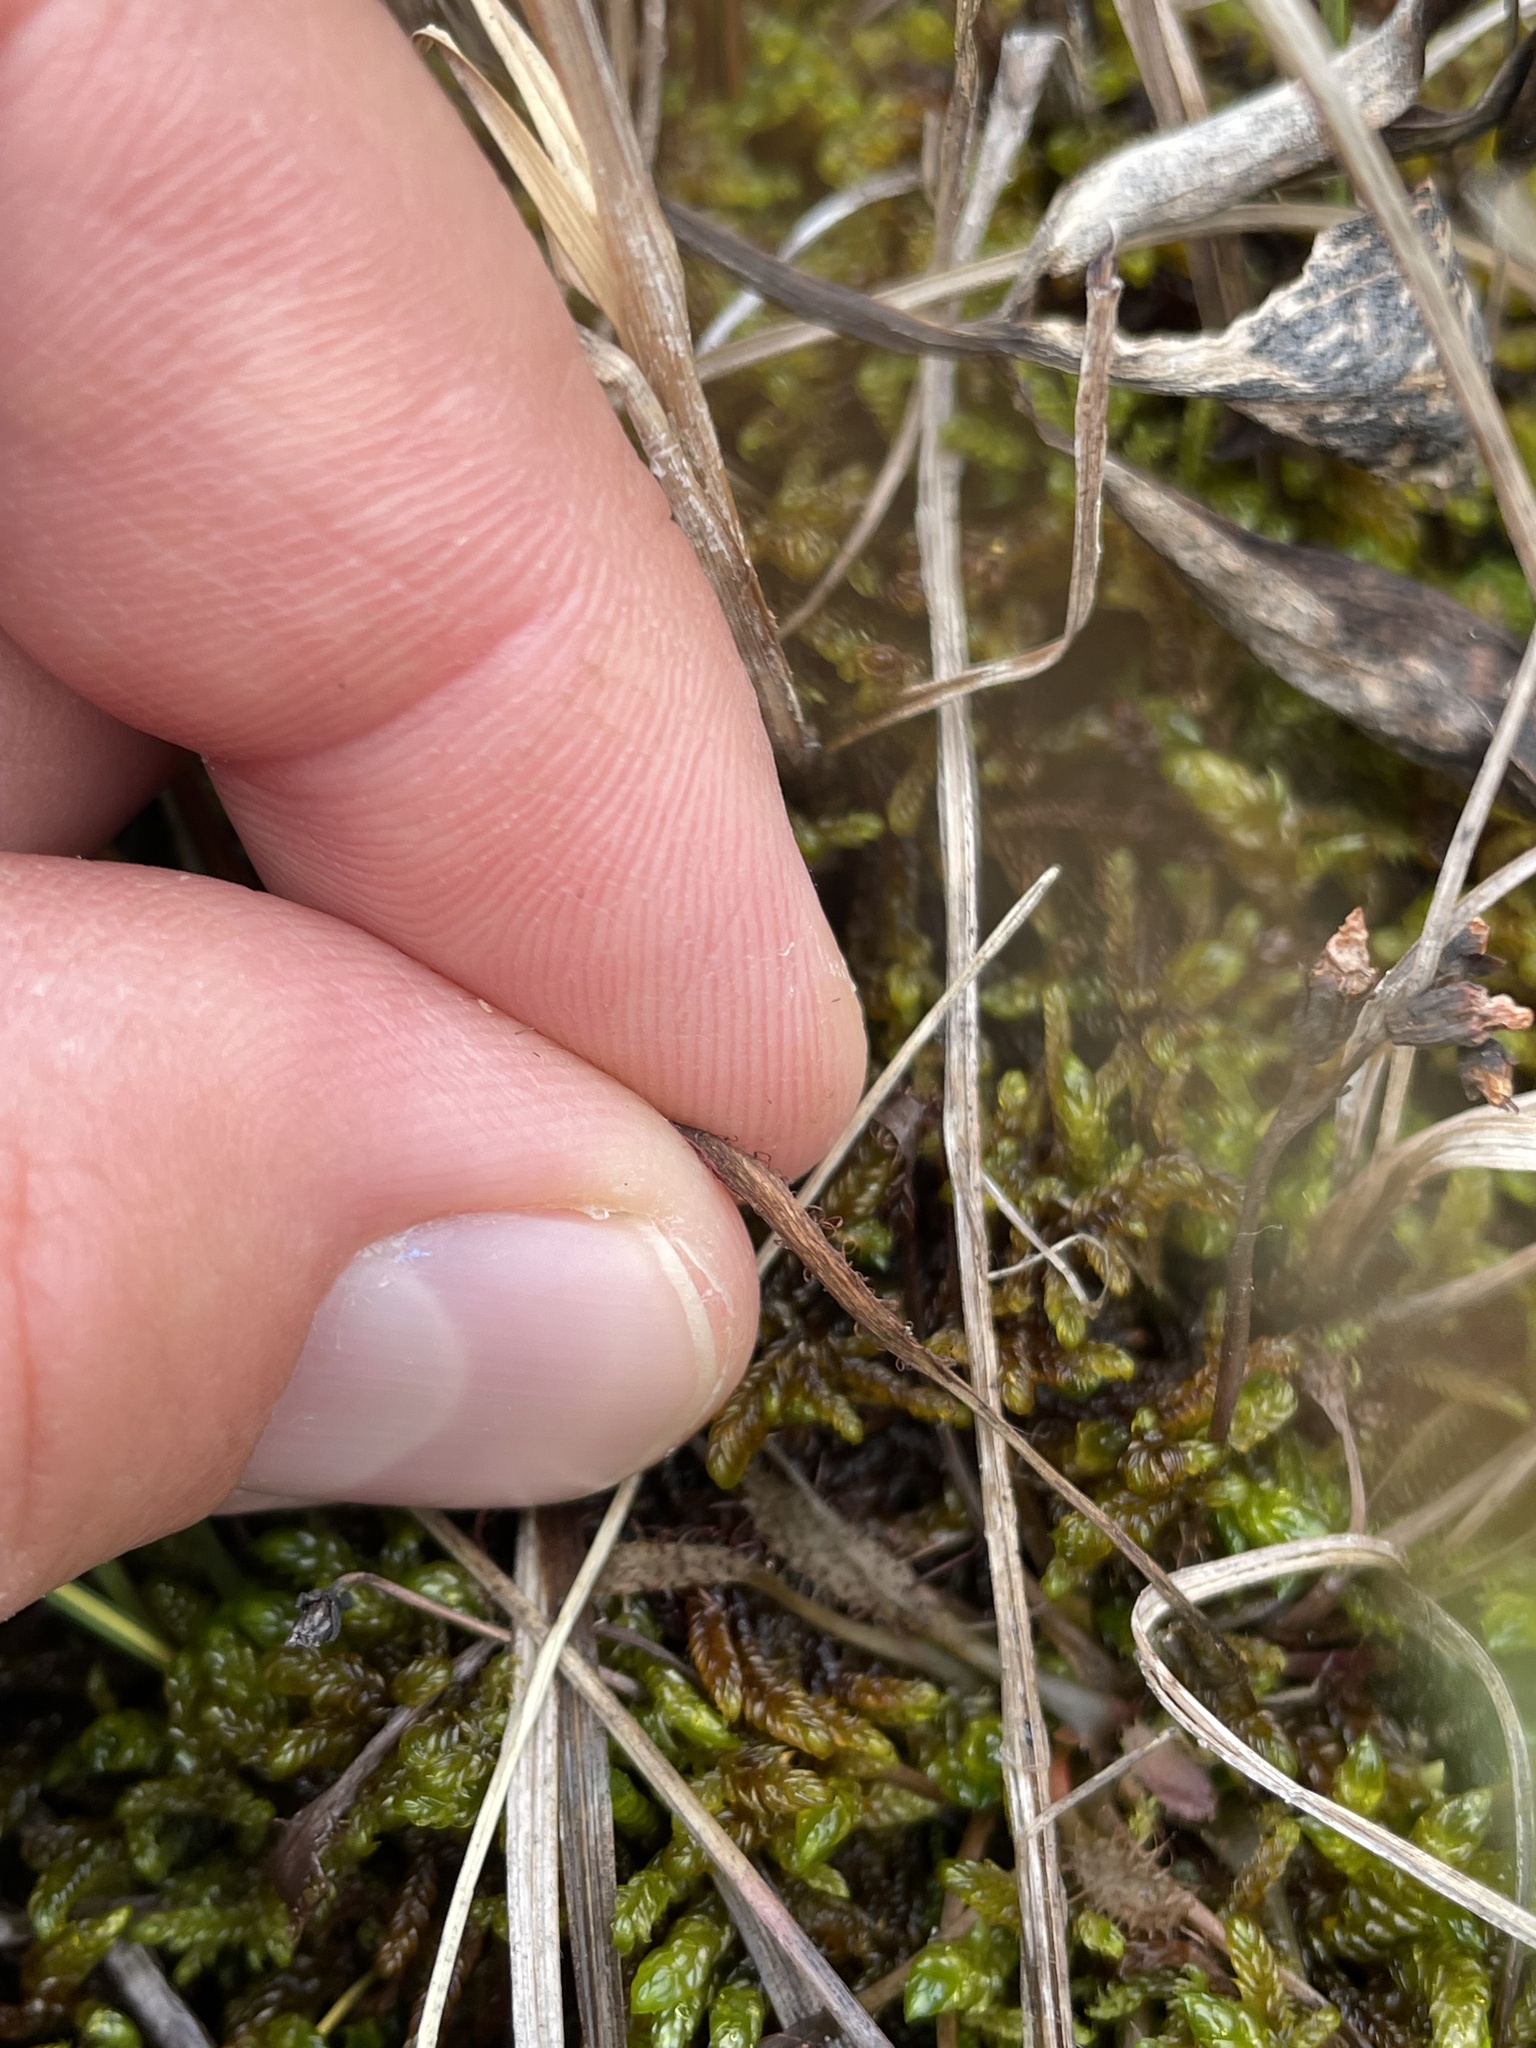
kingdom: Plantae
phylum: Tracheophyta
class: Magnoliopsida
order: Caryophyllales
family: Droseraceae
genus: Drosera
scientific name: Drosera linearis
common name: Linear-leaved sundew
